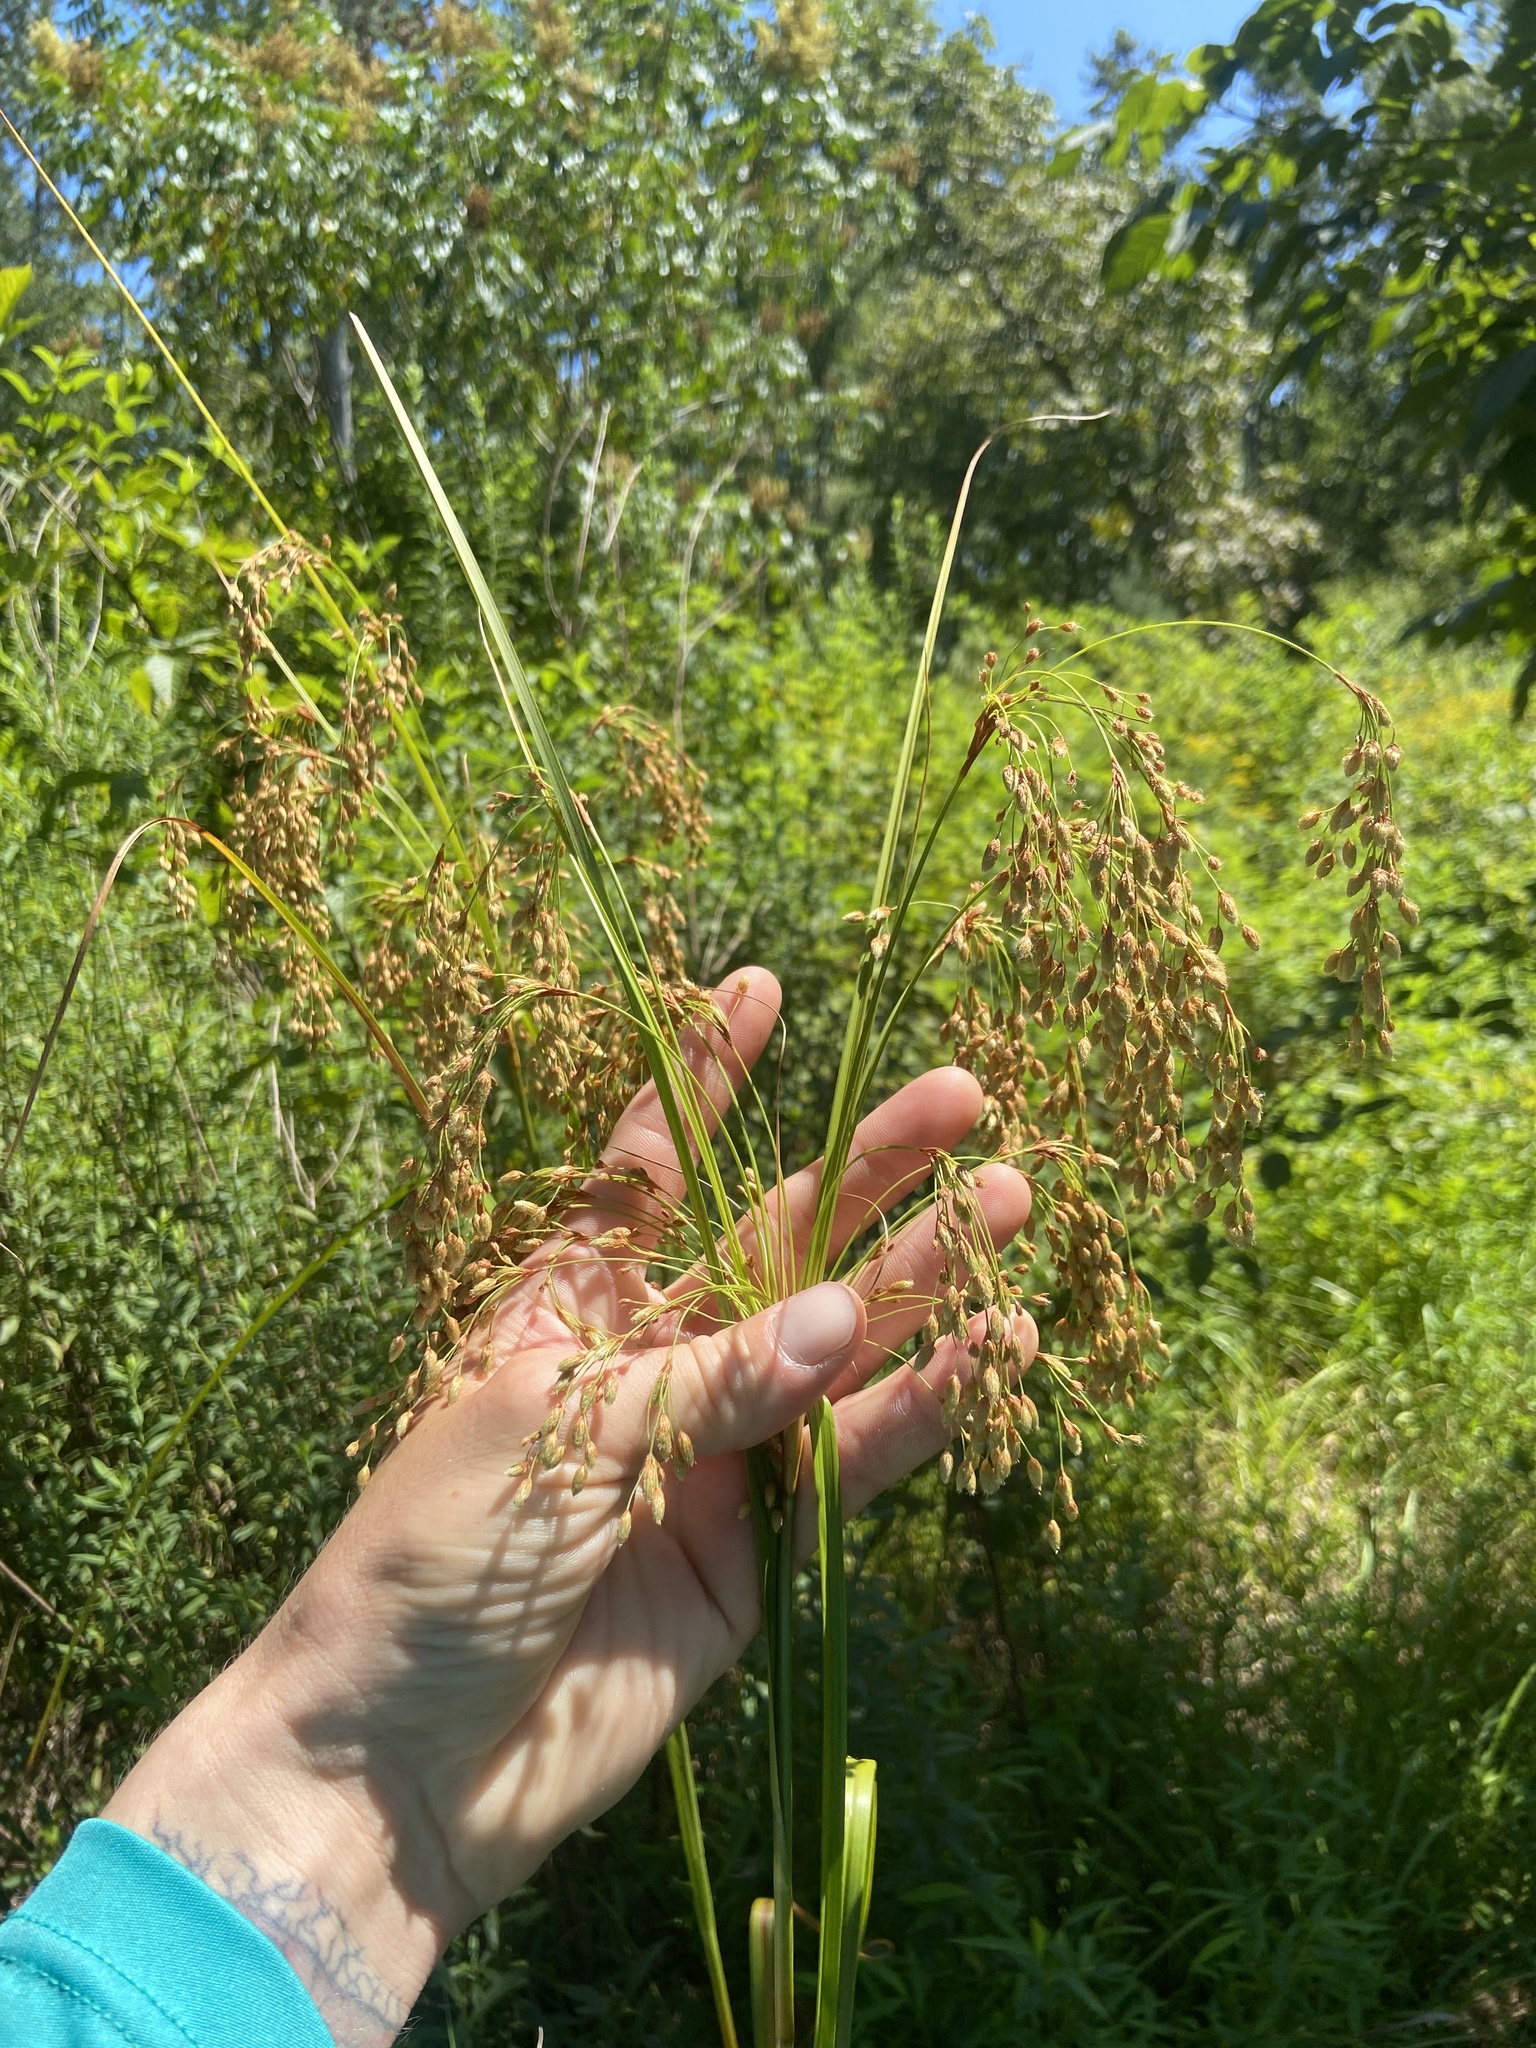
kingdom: Plantae
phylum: Tracheophyta
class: Liliopsida
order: Poales
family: Cyperaceae
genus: Scirpus
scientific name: Scirpus cyperinus
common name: Black-sheathed bulrush
